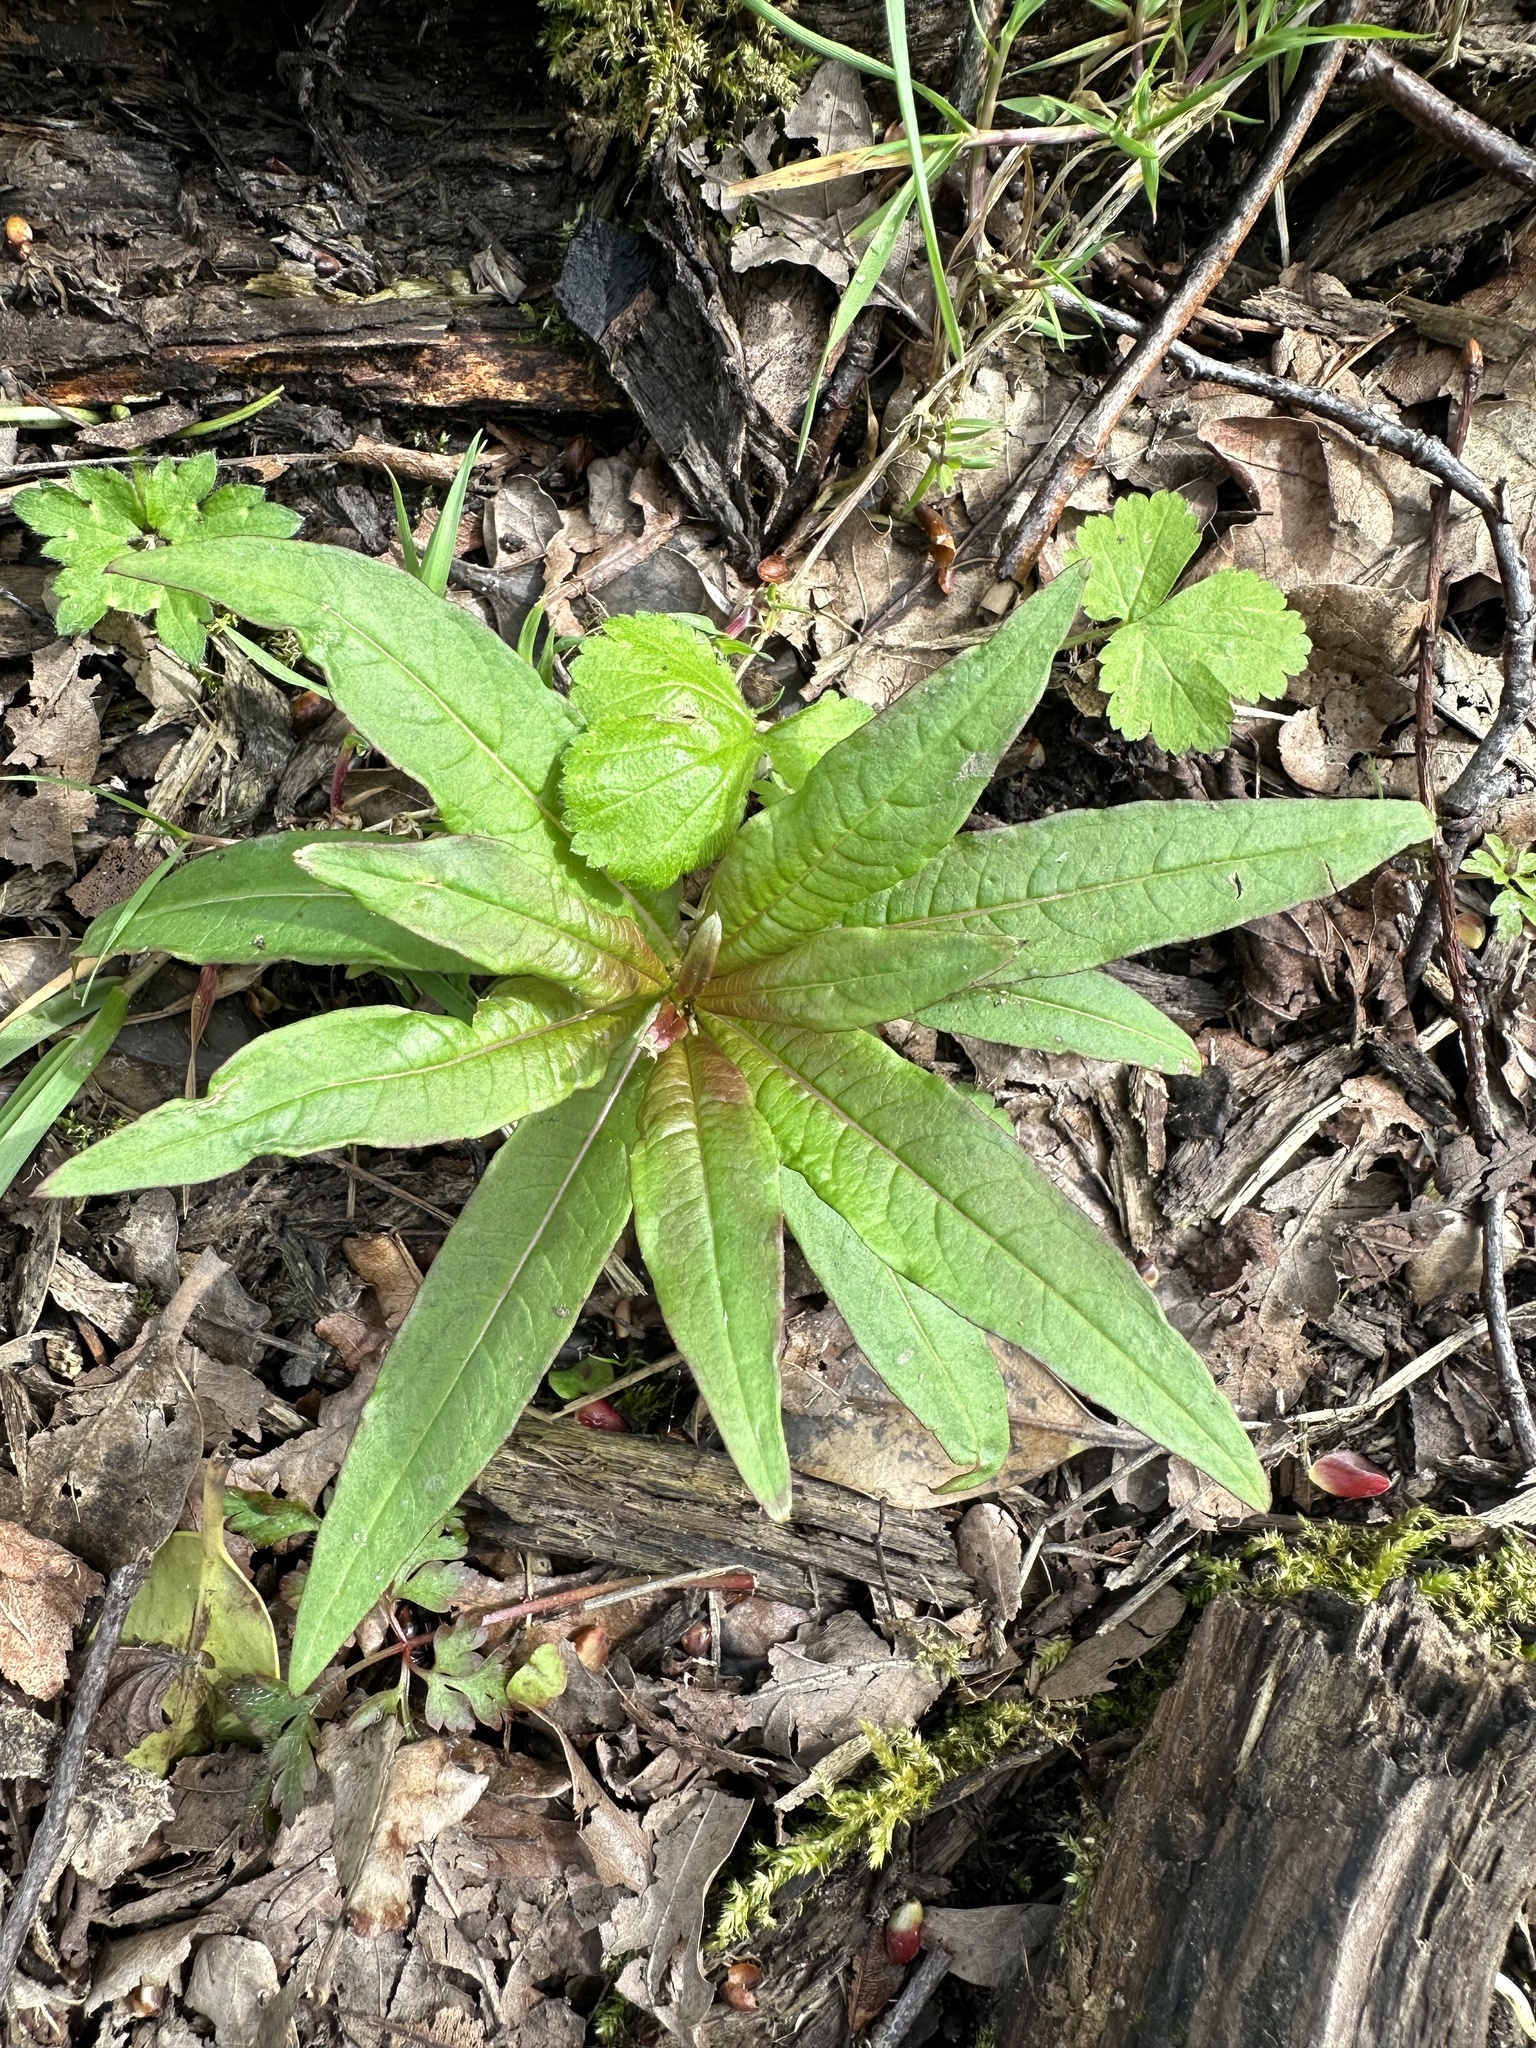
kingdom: Plantae
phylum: Tracheophyta
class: Magnoliopsida
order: Myrtales
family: Onagraceae
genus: Chamaenerion
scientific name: Chamaenerion angustifolium
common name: Fireweed
